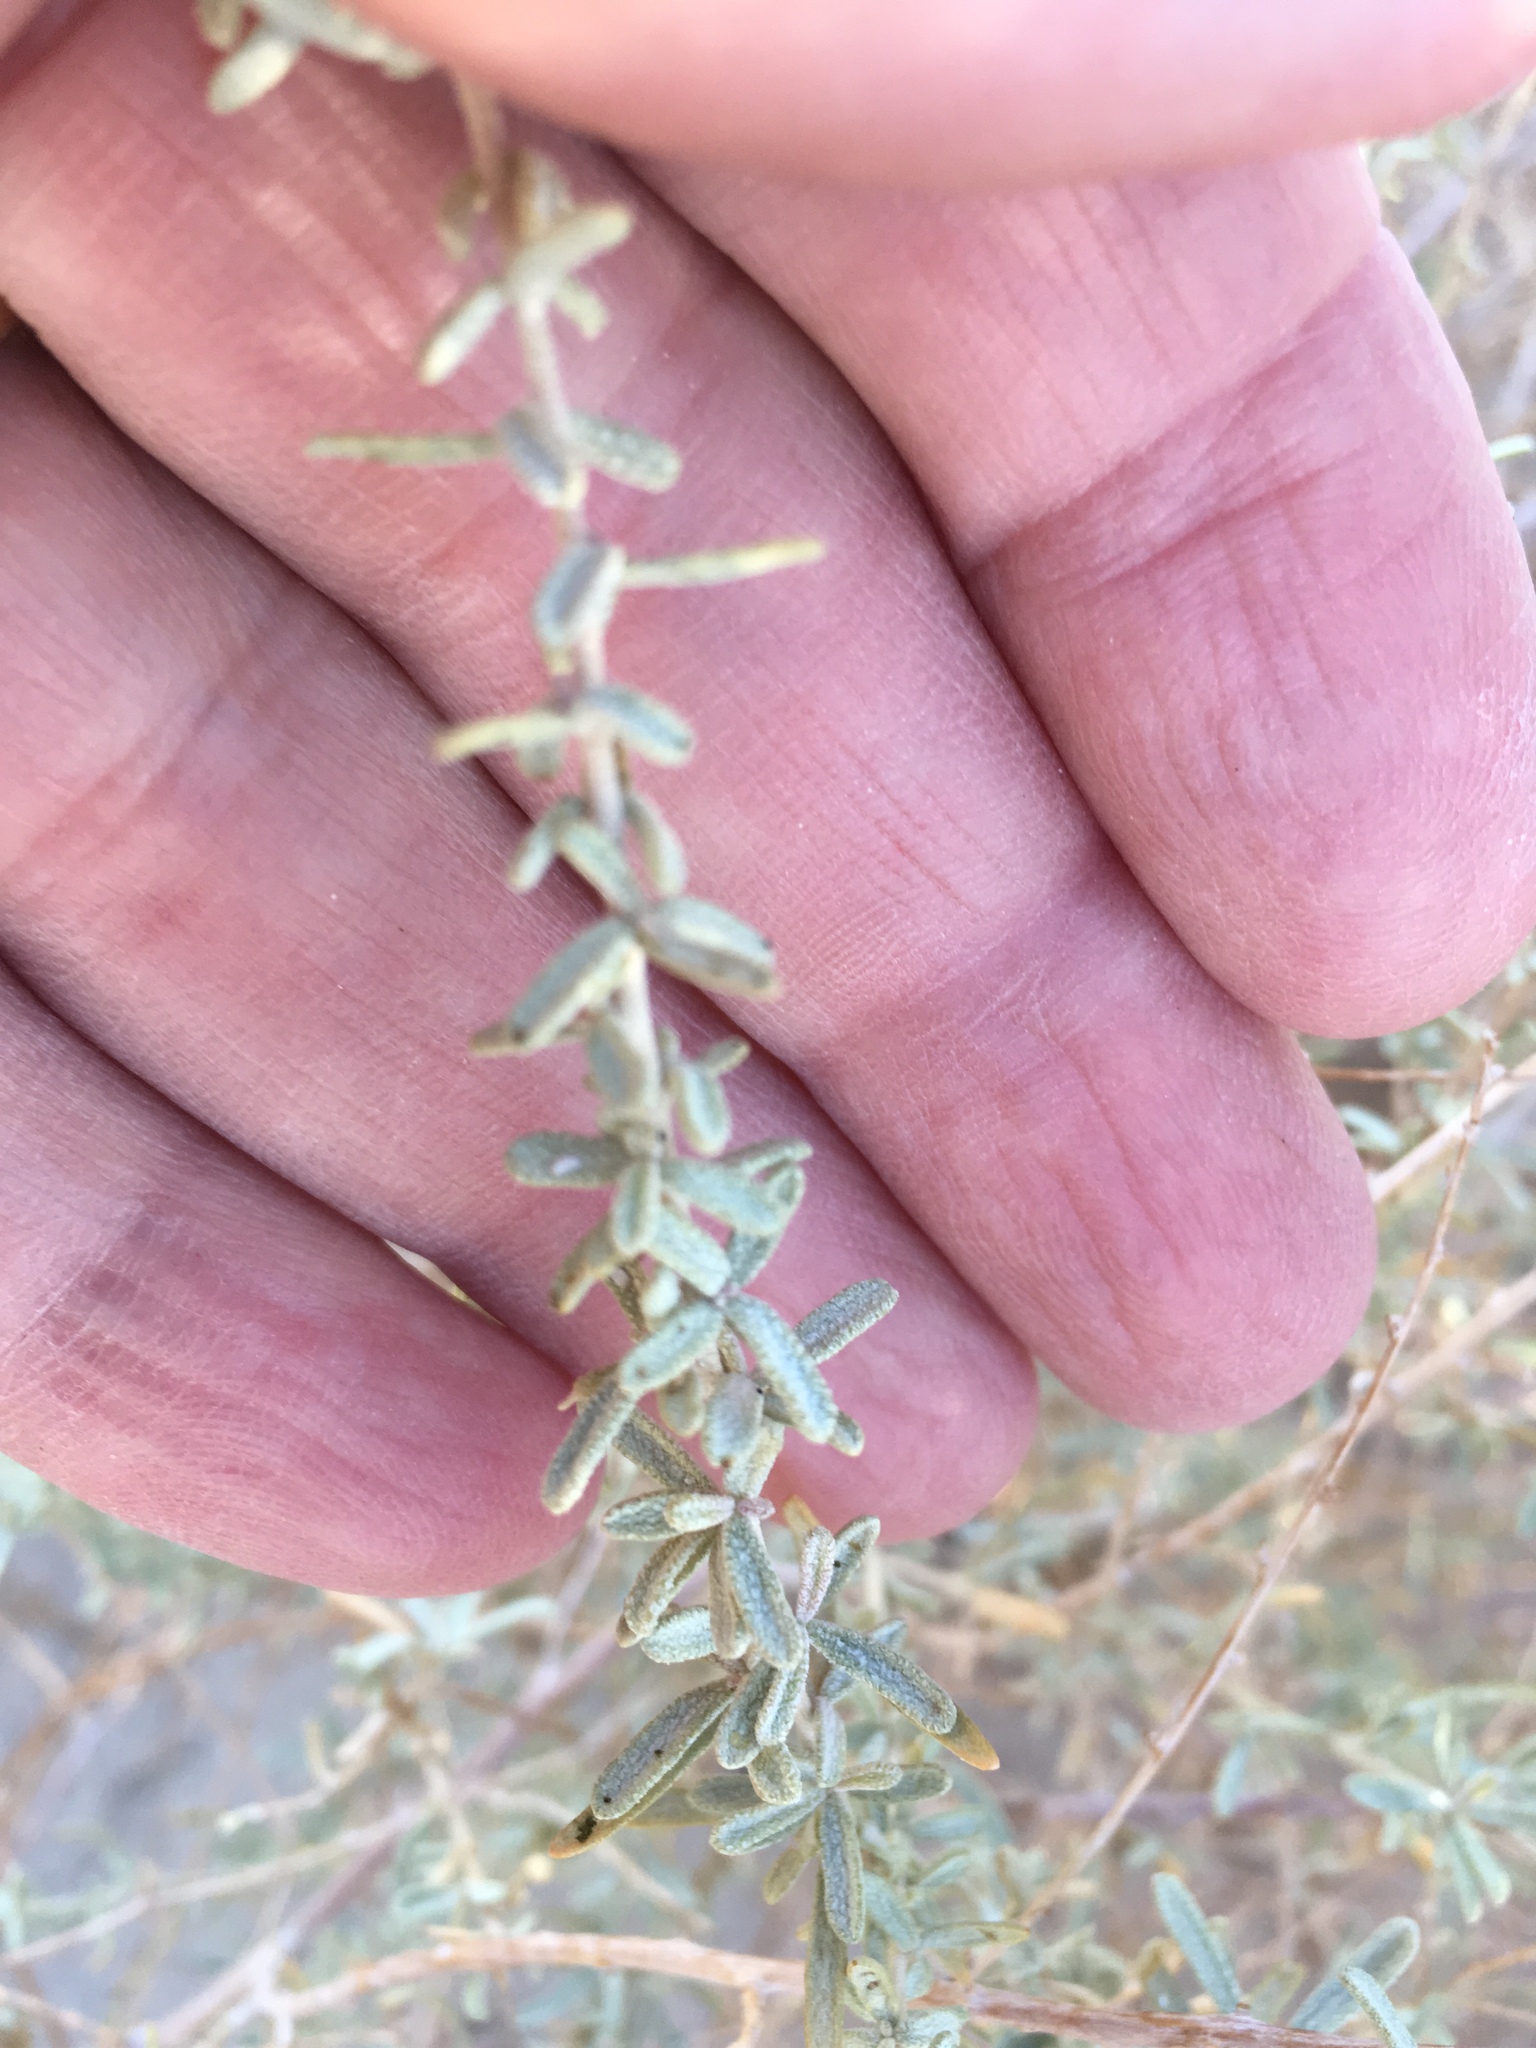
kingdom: Plantae
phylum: Tracheophyta
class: Magnoliopsida
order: Caryophyllales
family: Amaranthaceae
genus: Atriplex
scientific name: Atriplex canescens
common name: Four-wing saltbush
